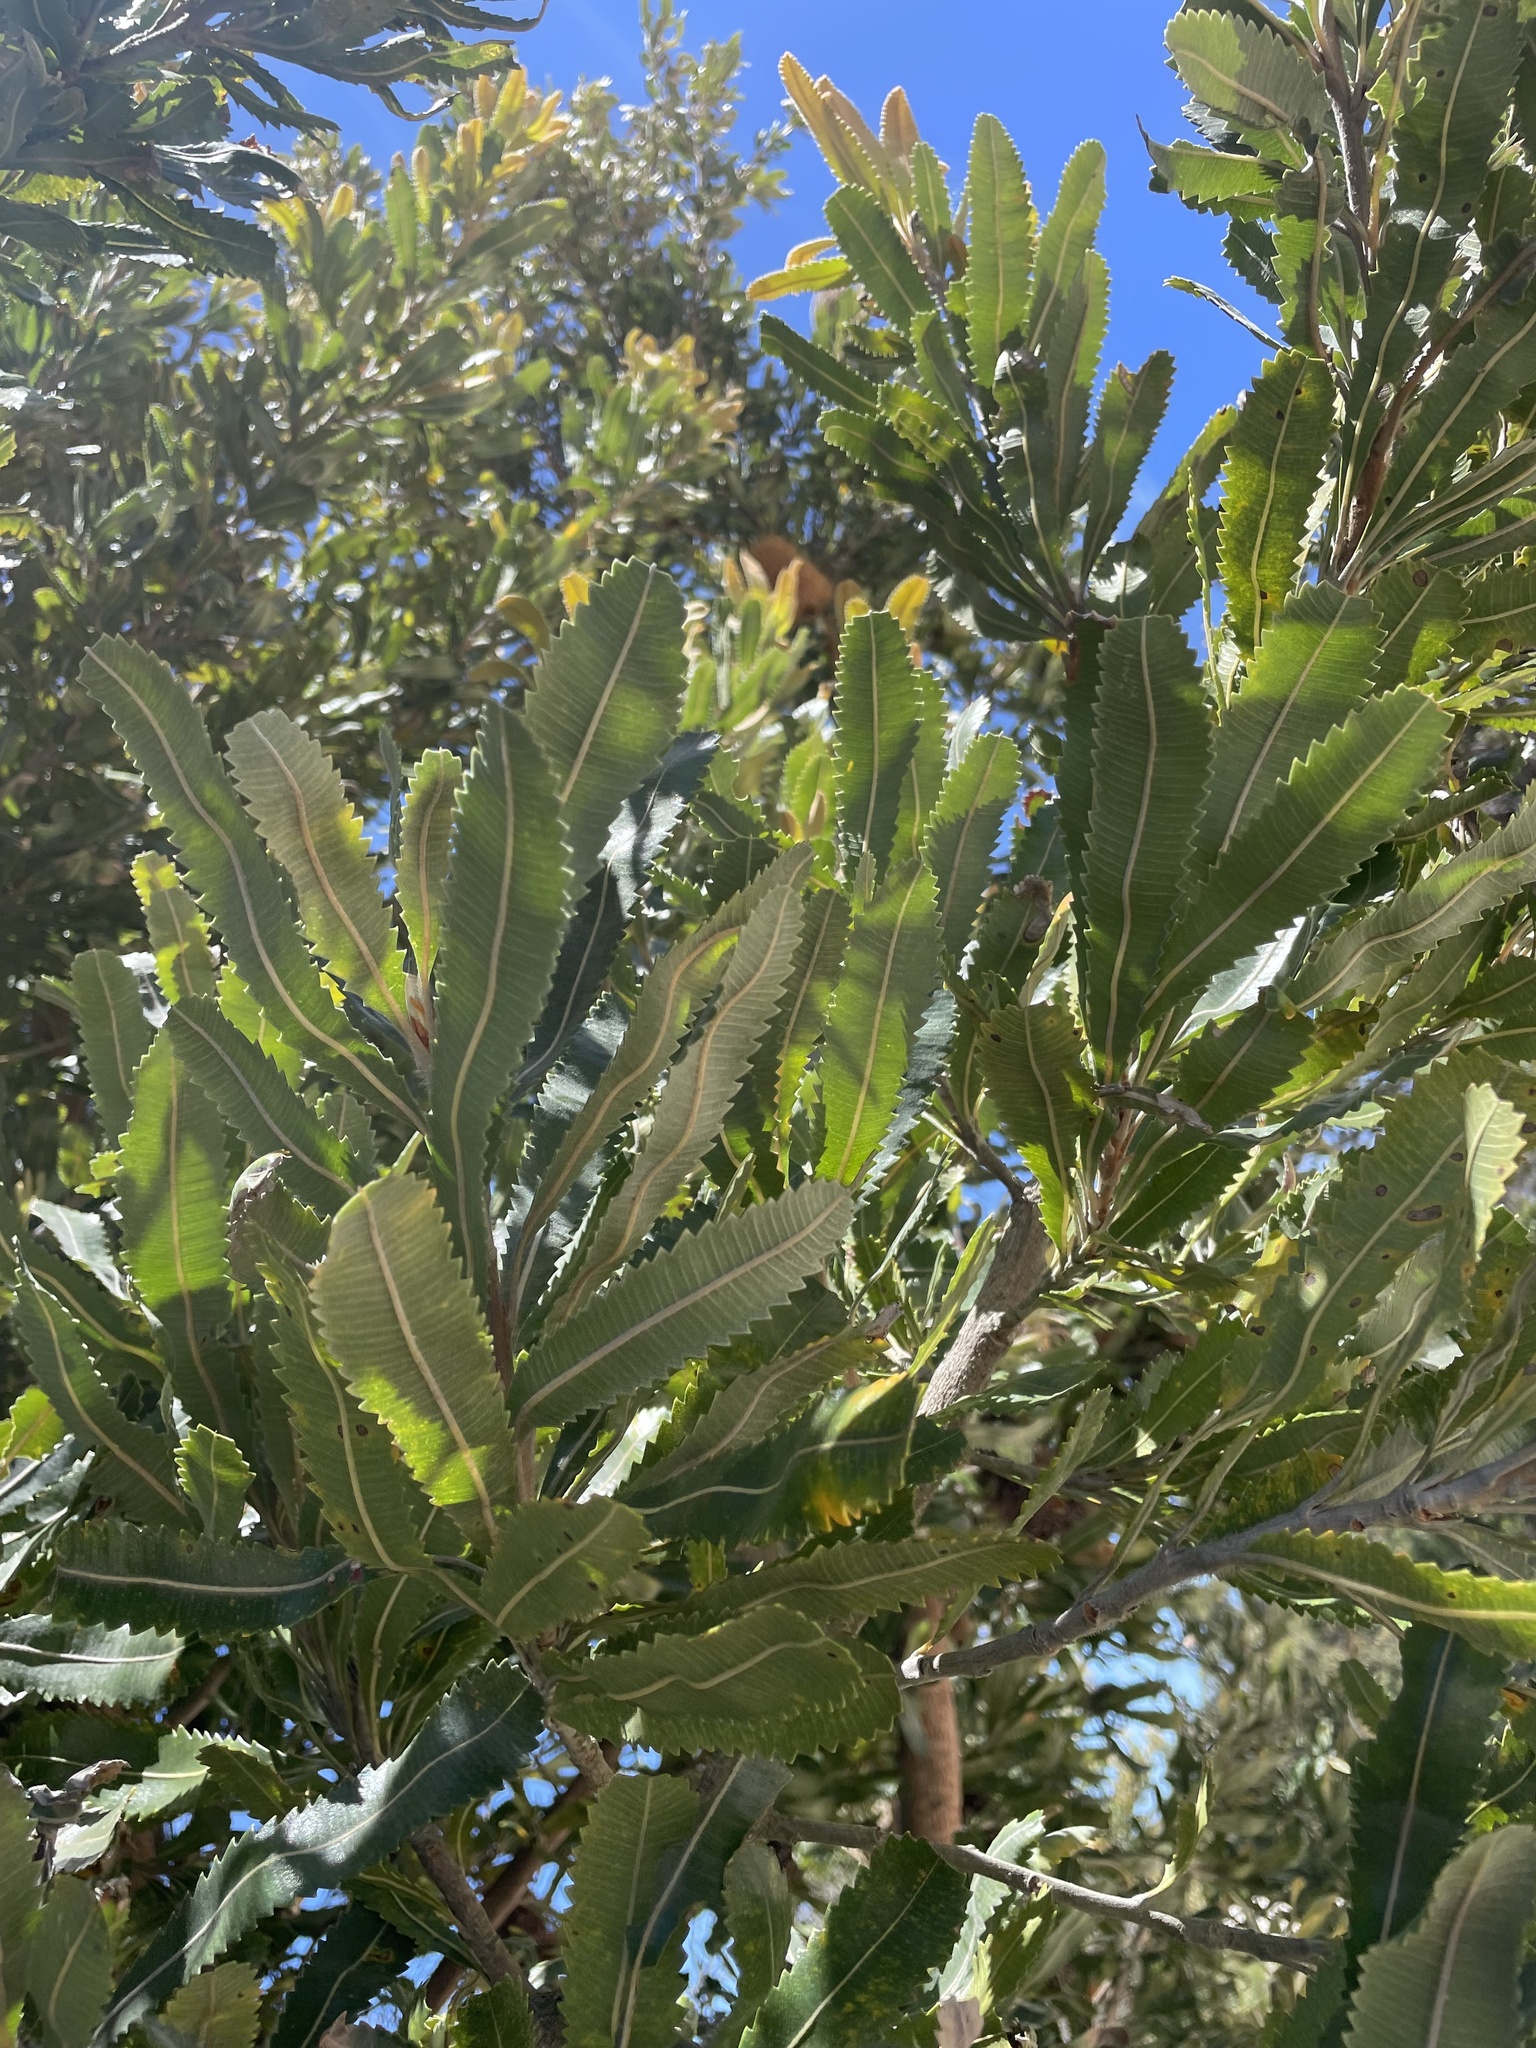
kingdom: Plantae
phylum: Tracheophyta
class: Magnoliopsida
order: Proteales
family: Proteaceae
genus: Banksia
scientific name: Banksia serrata
